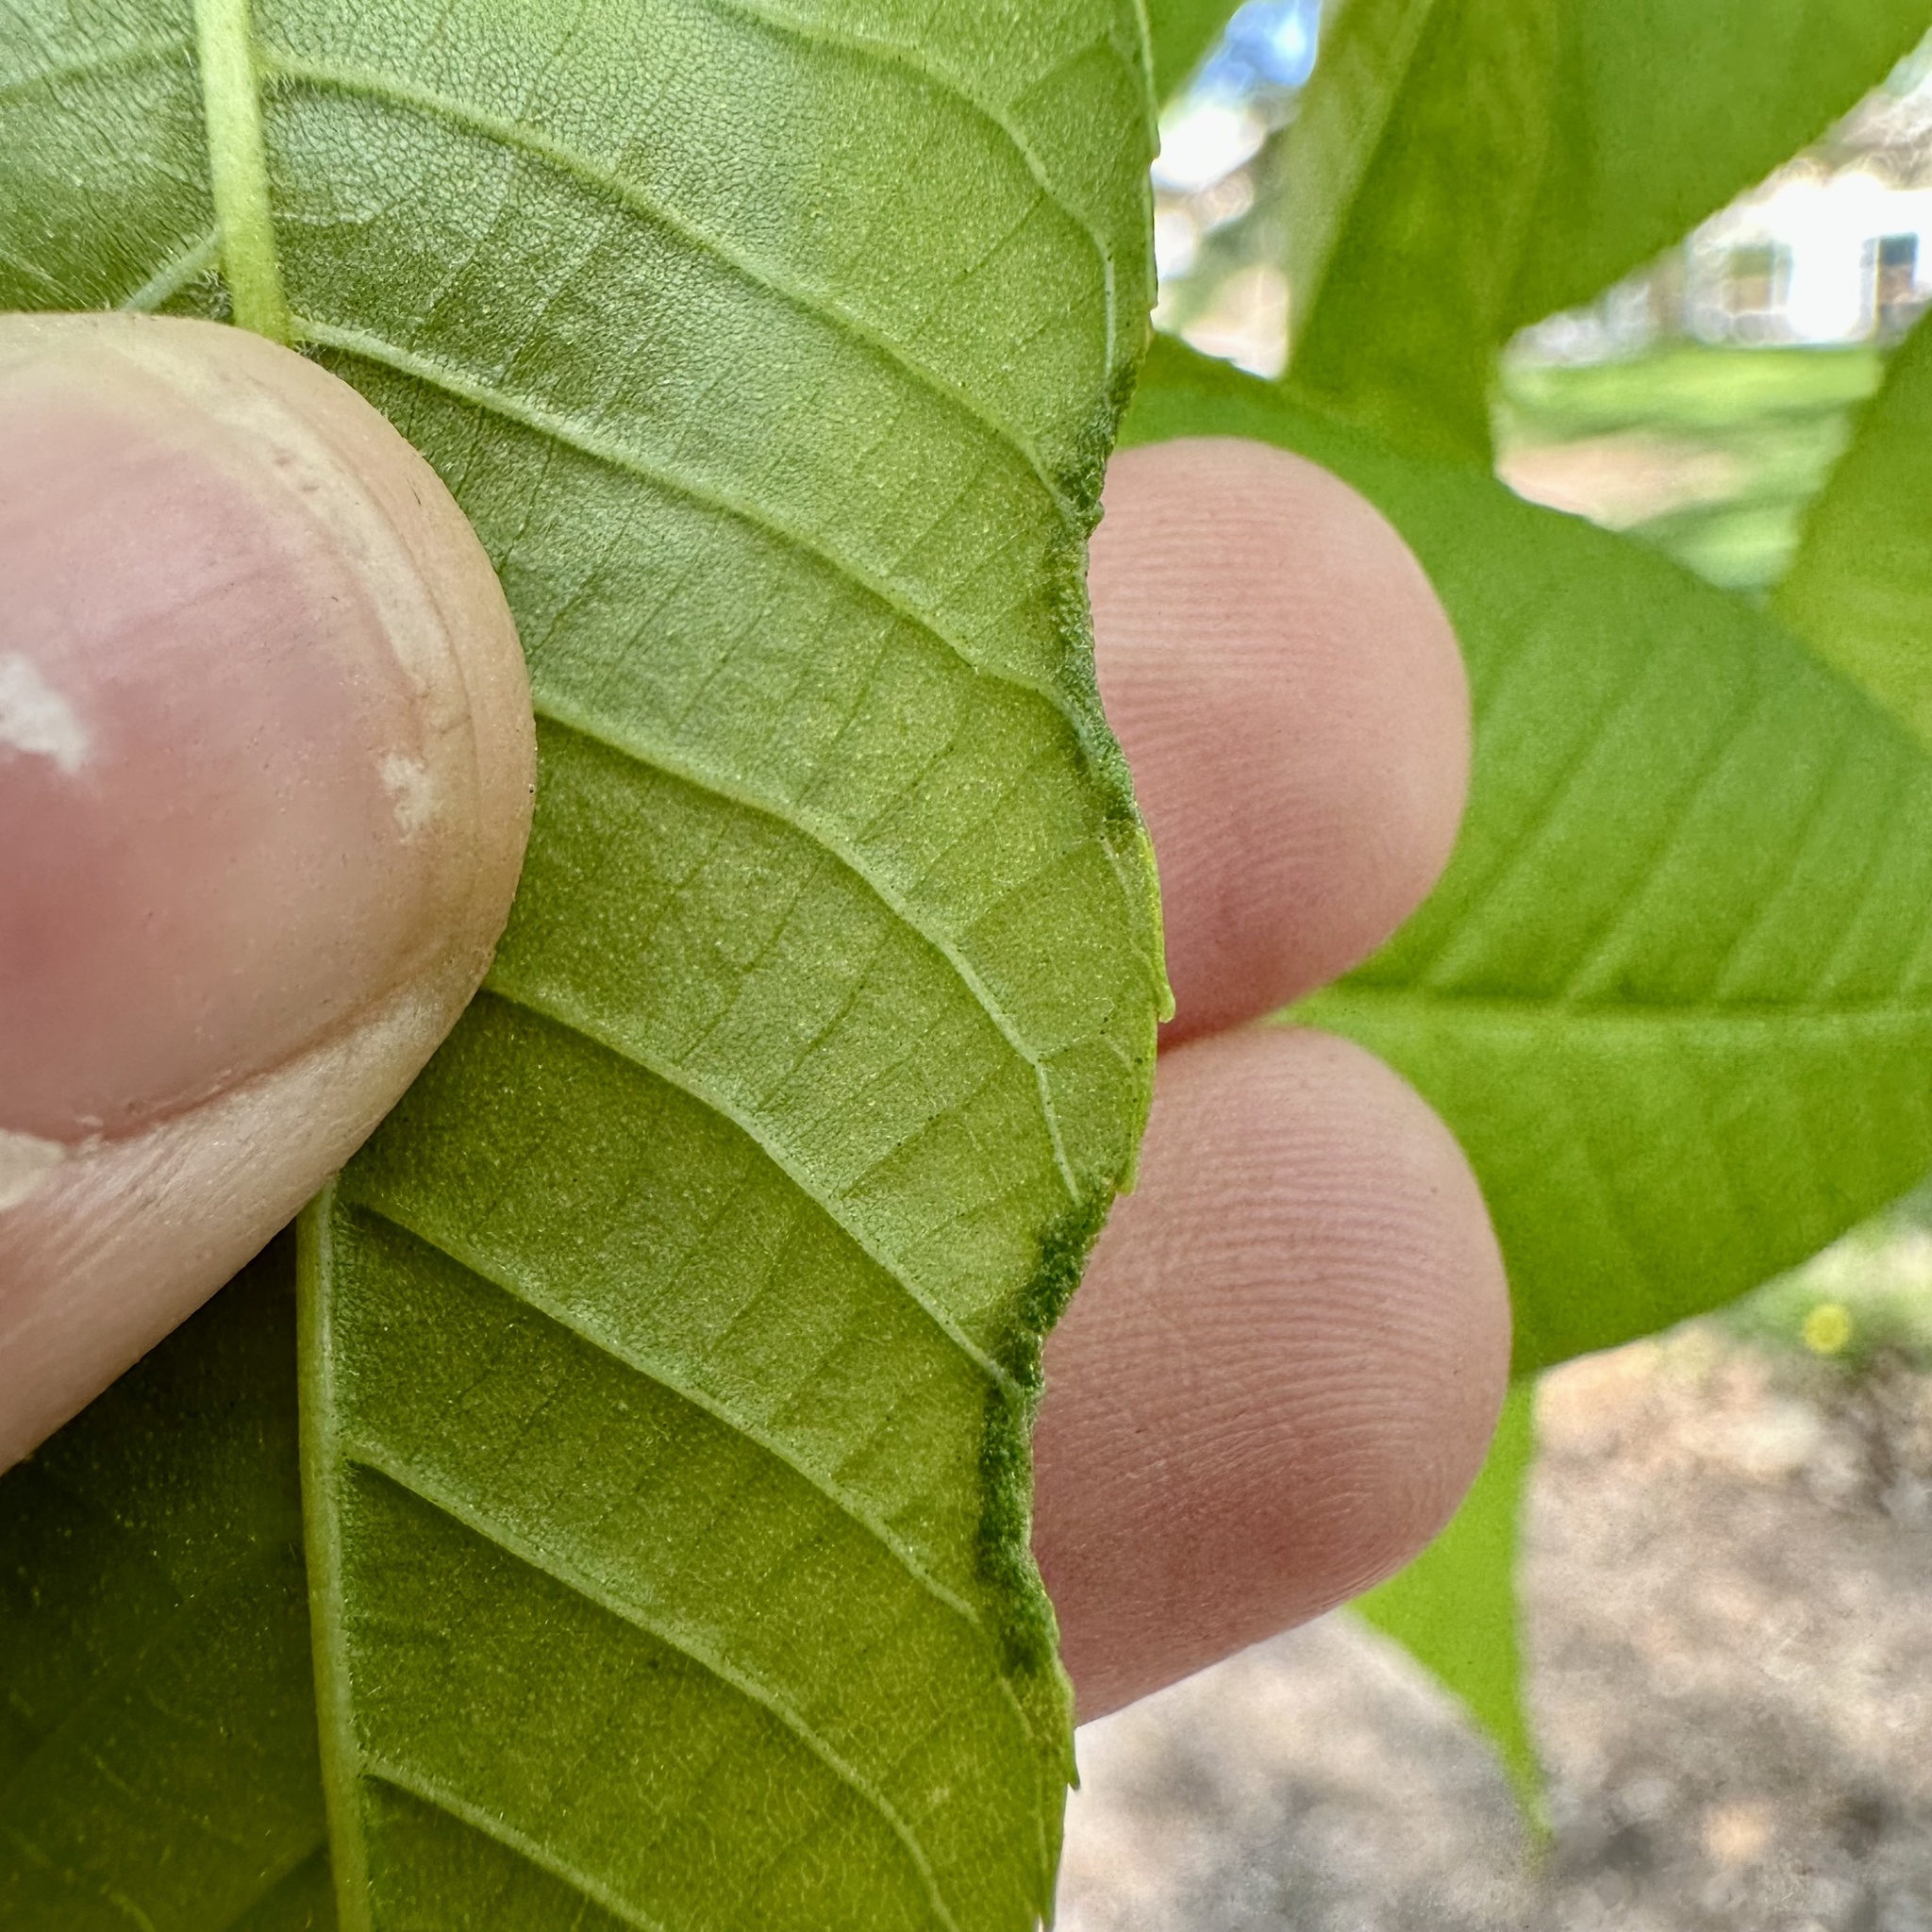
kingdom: Animalia
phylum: Arthropoda
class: Arachnida
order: Trombidiformes
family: Eriophyidae
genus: Aceria
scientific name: Aceria carlinae
